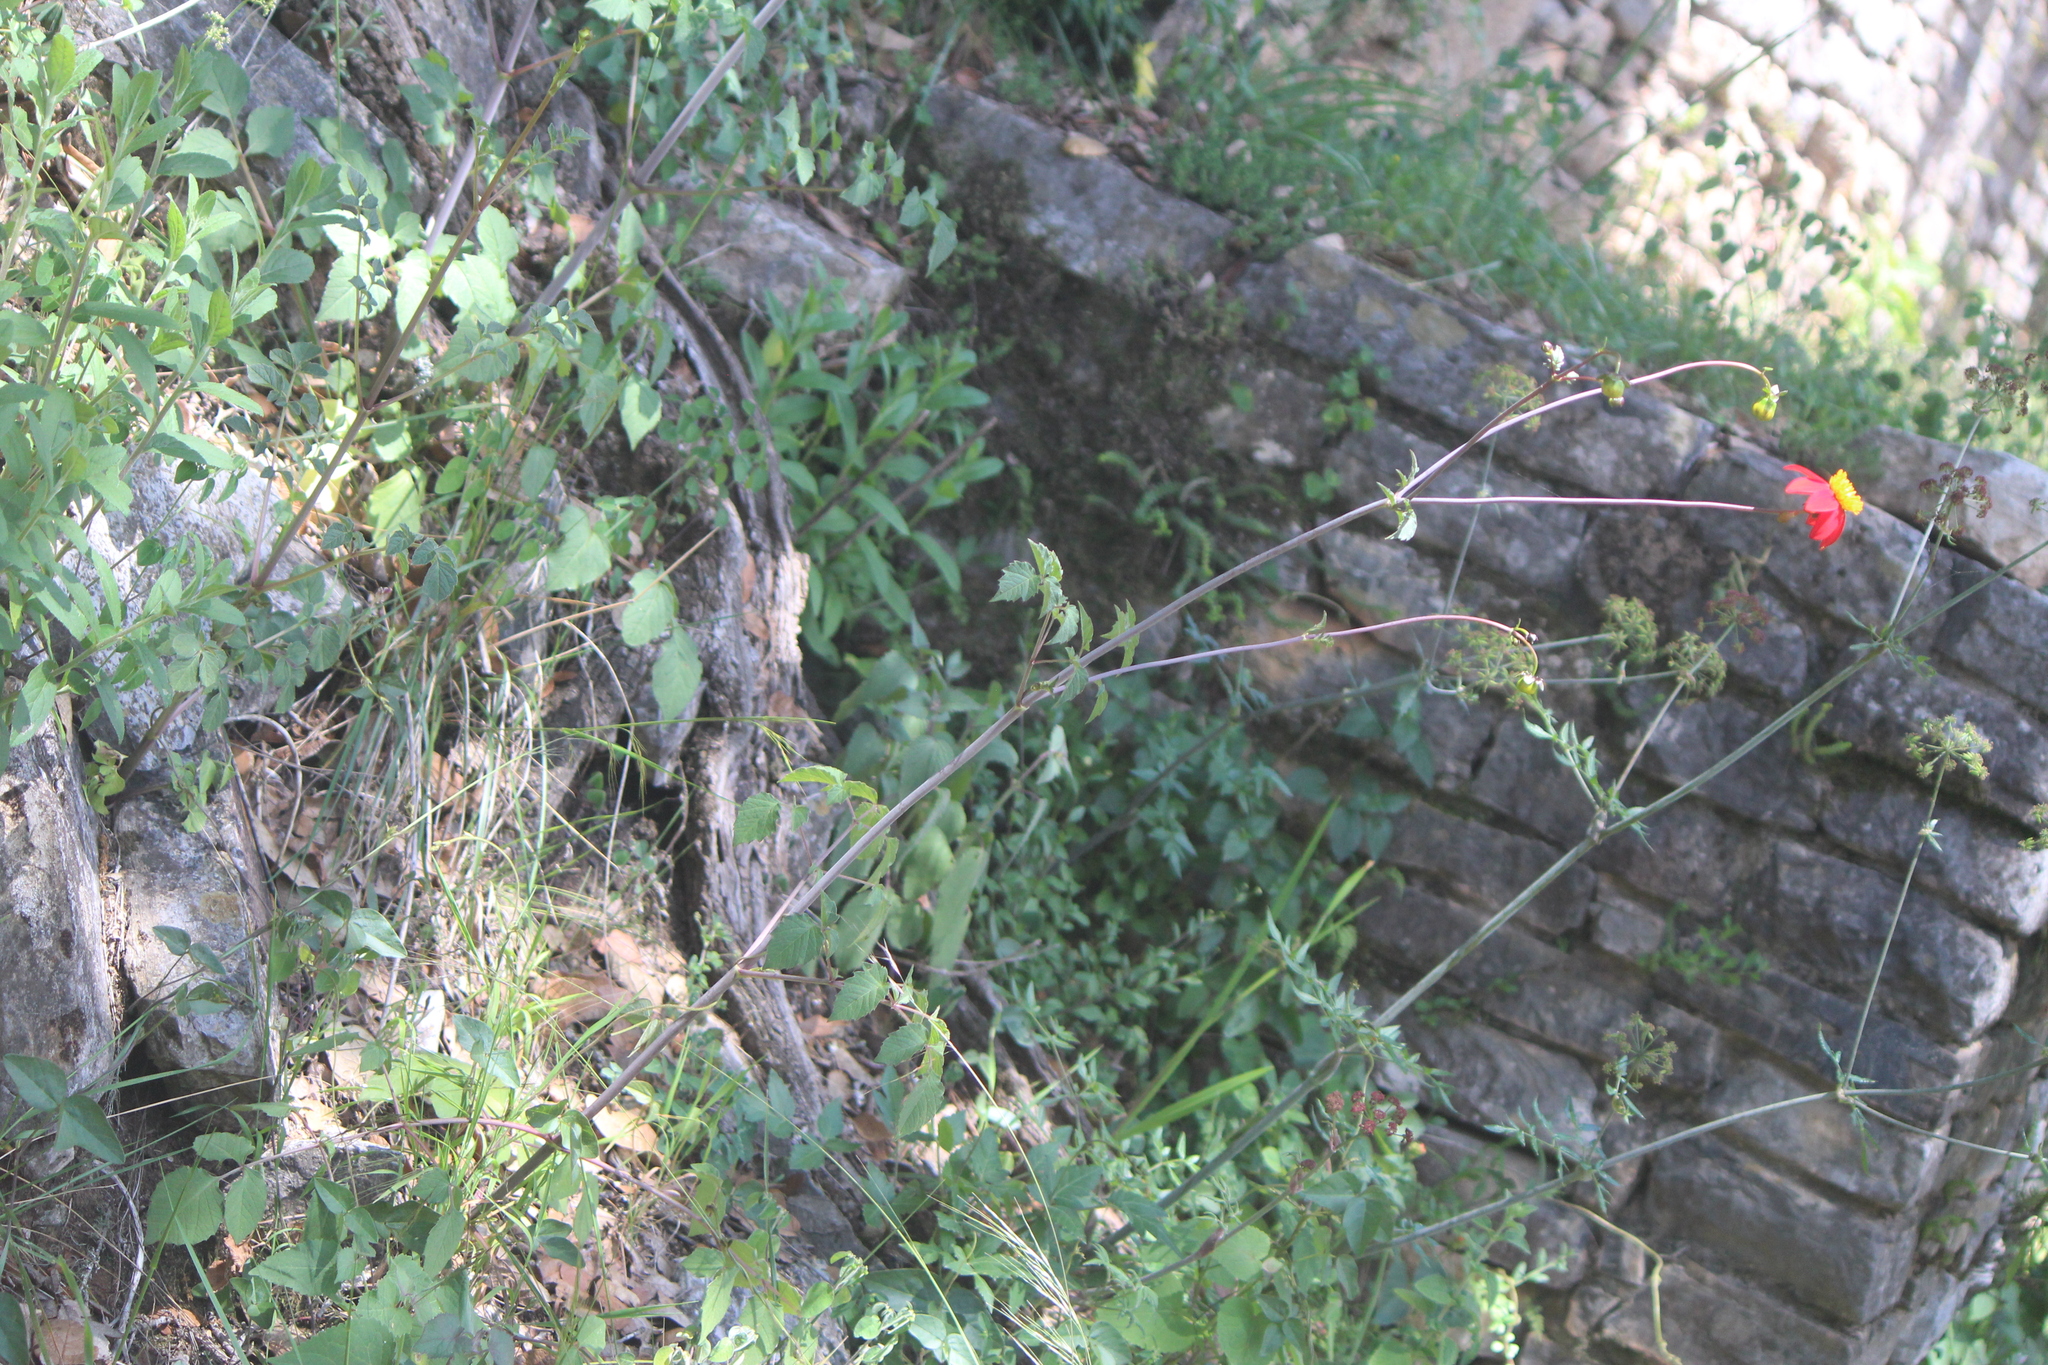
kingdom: Plantae
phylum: Tracheophyta
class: Magnoliopsida
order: Asterales
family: Asteraceae
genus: Dahlia
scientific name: Dahlia coccinea
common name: Red dahlia
